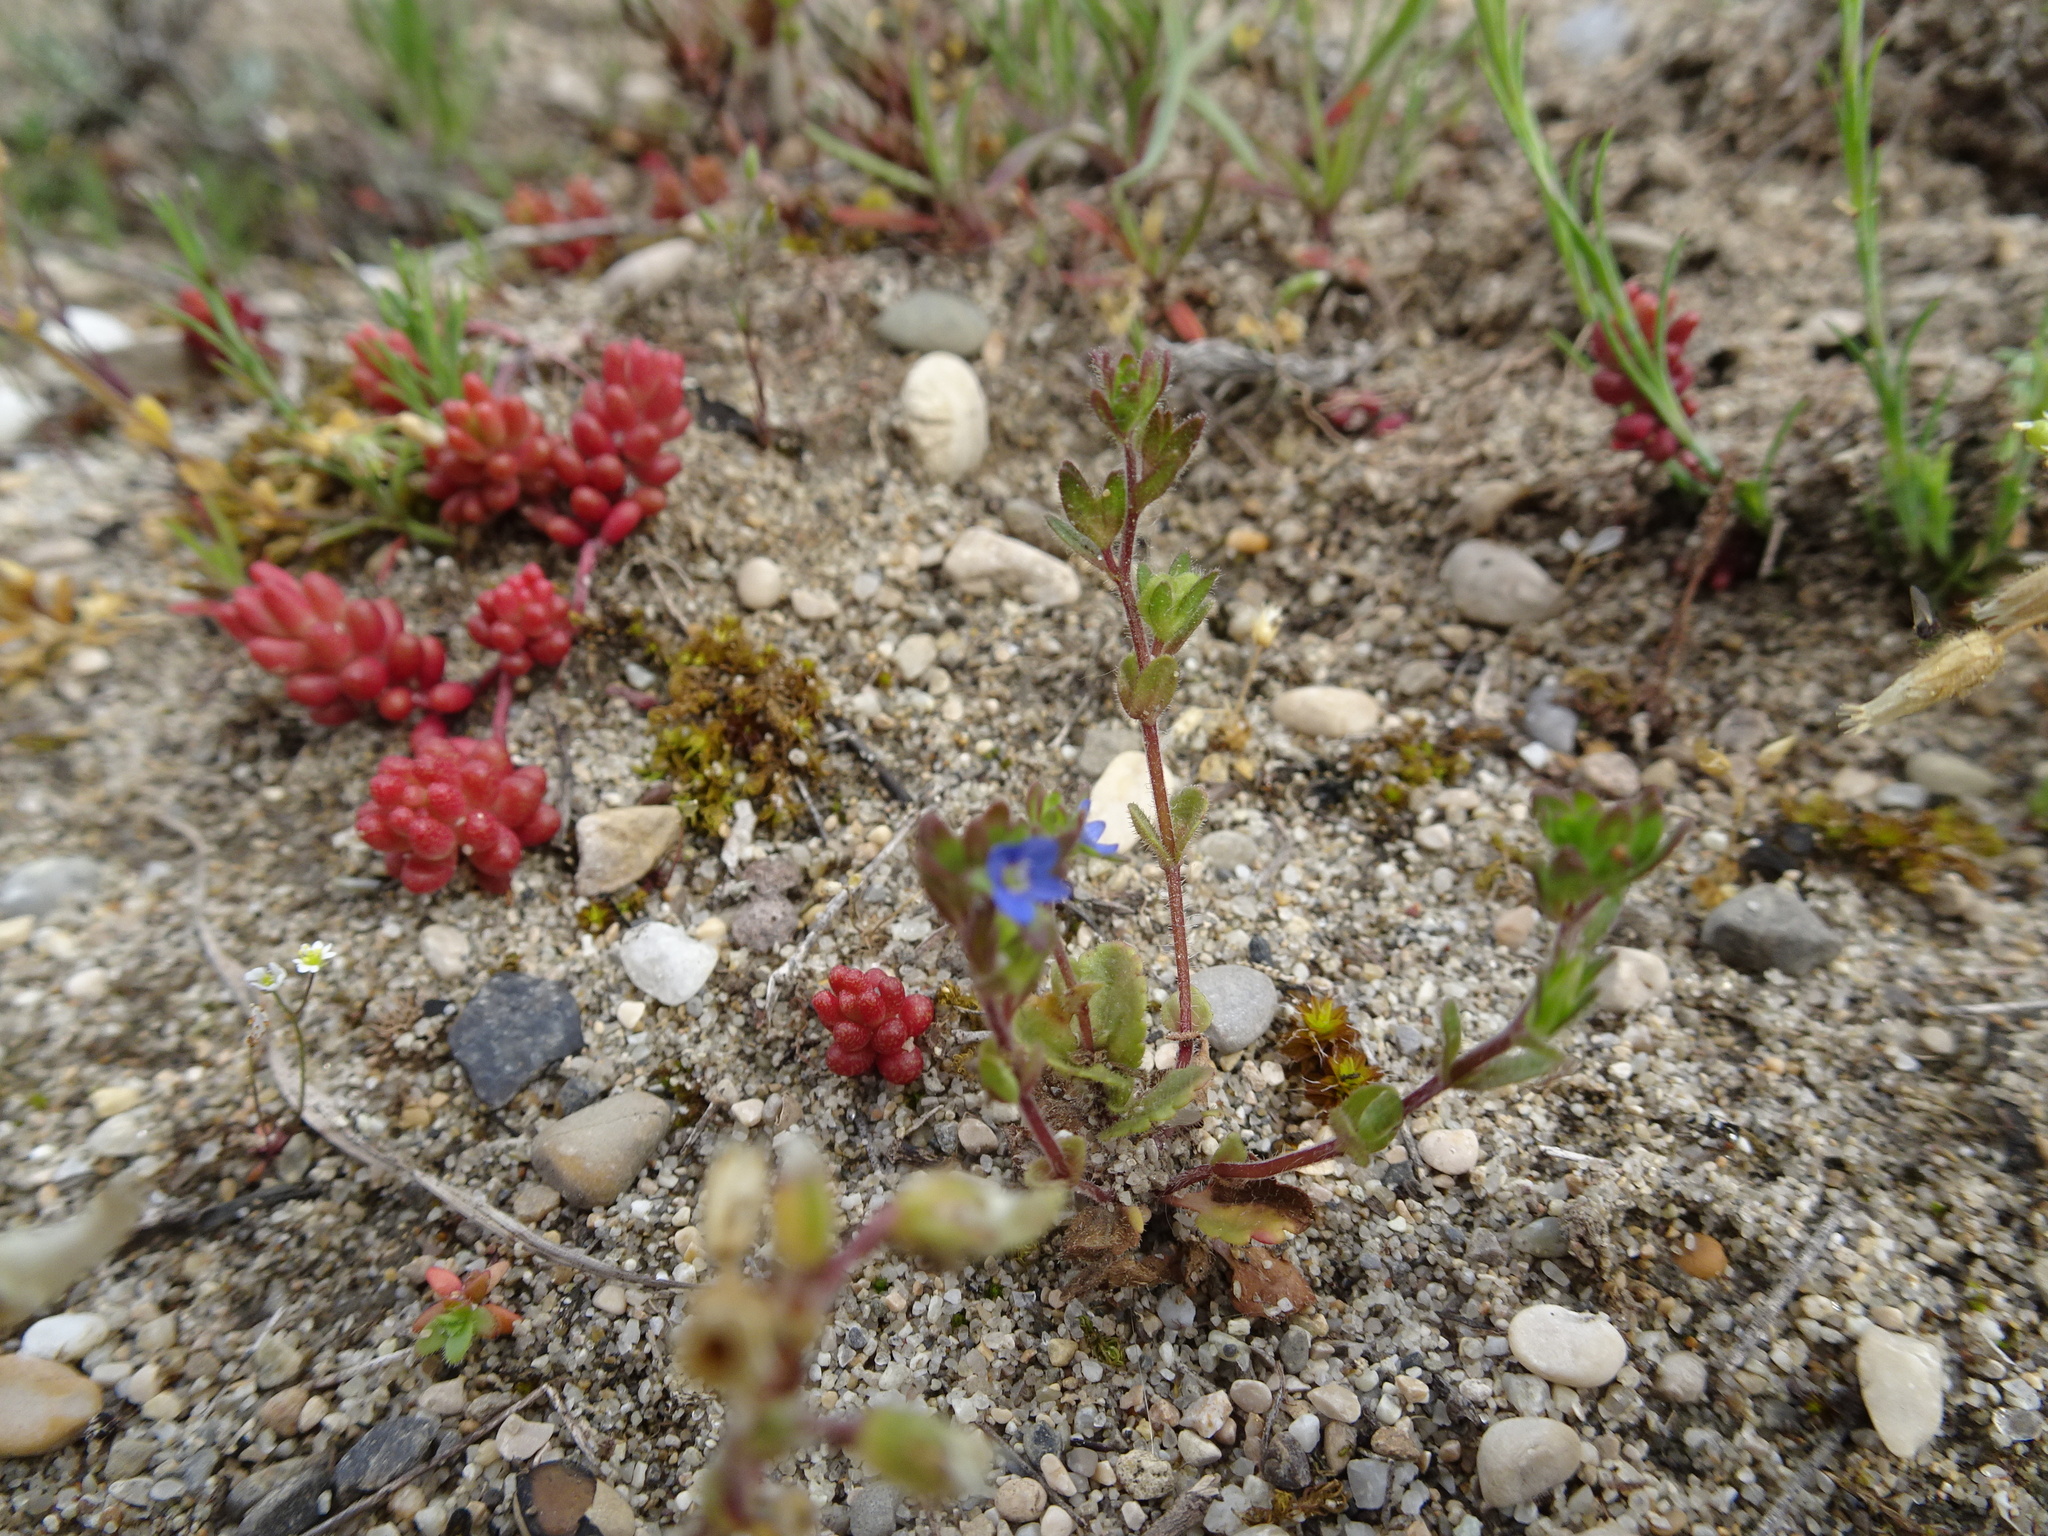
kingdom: Plantae
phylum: Tracheophyta
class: Magnoliopsida
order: Lamiales
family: Plantaginaceae
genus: Veronica
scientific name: Veronica arvensis
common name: Corn speedwell
